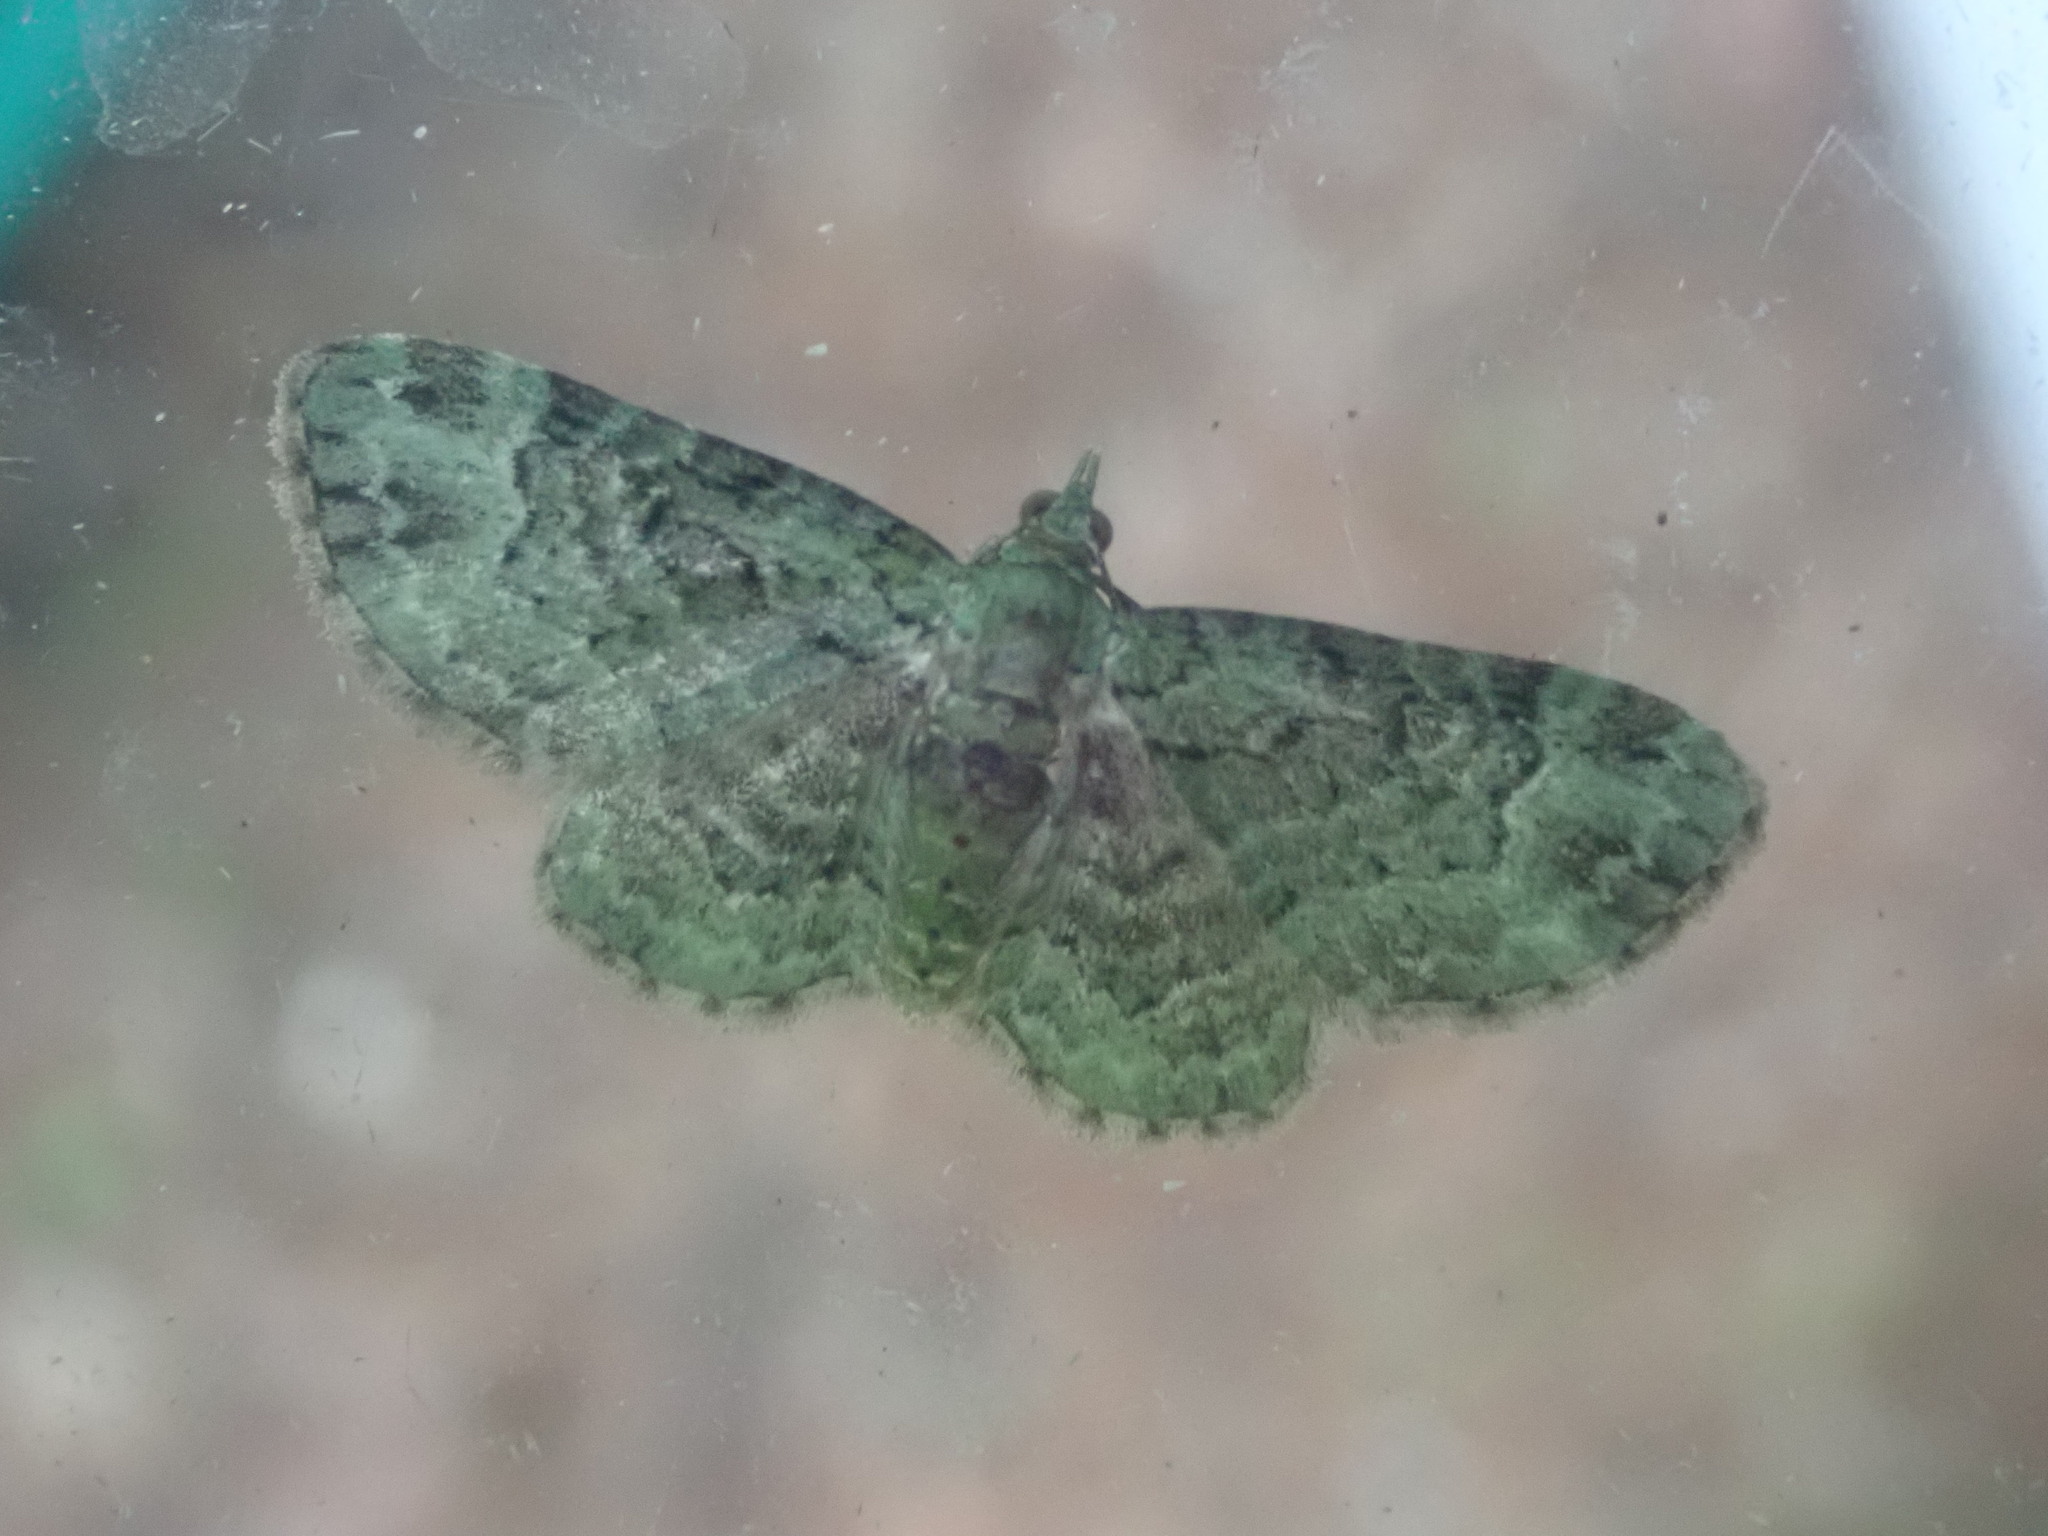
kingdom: Animalia
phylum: Arthropoda
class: Insecta
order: Lepidoptera
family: Geometridae
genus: Pasiphila
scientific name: Pasiphila rectangulata
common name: Green pug
